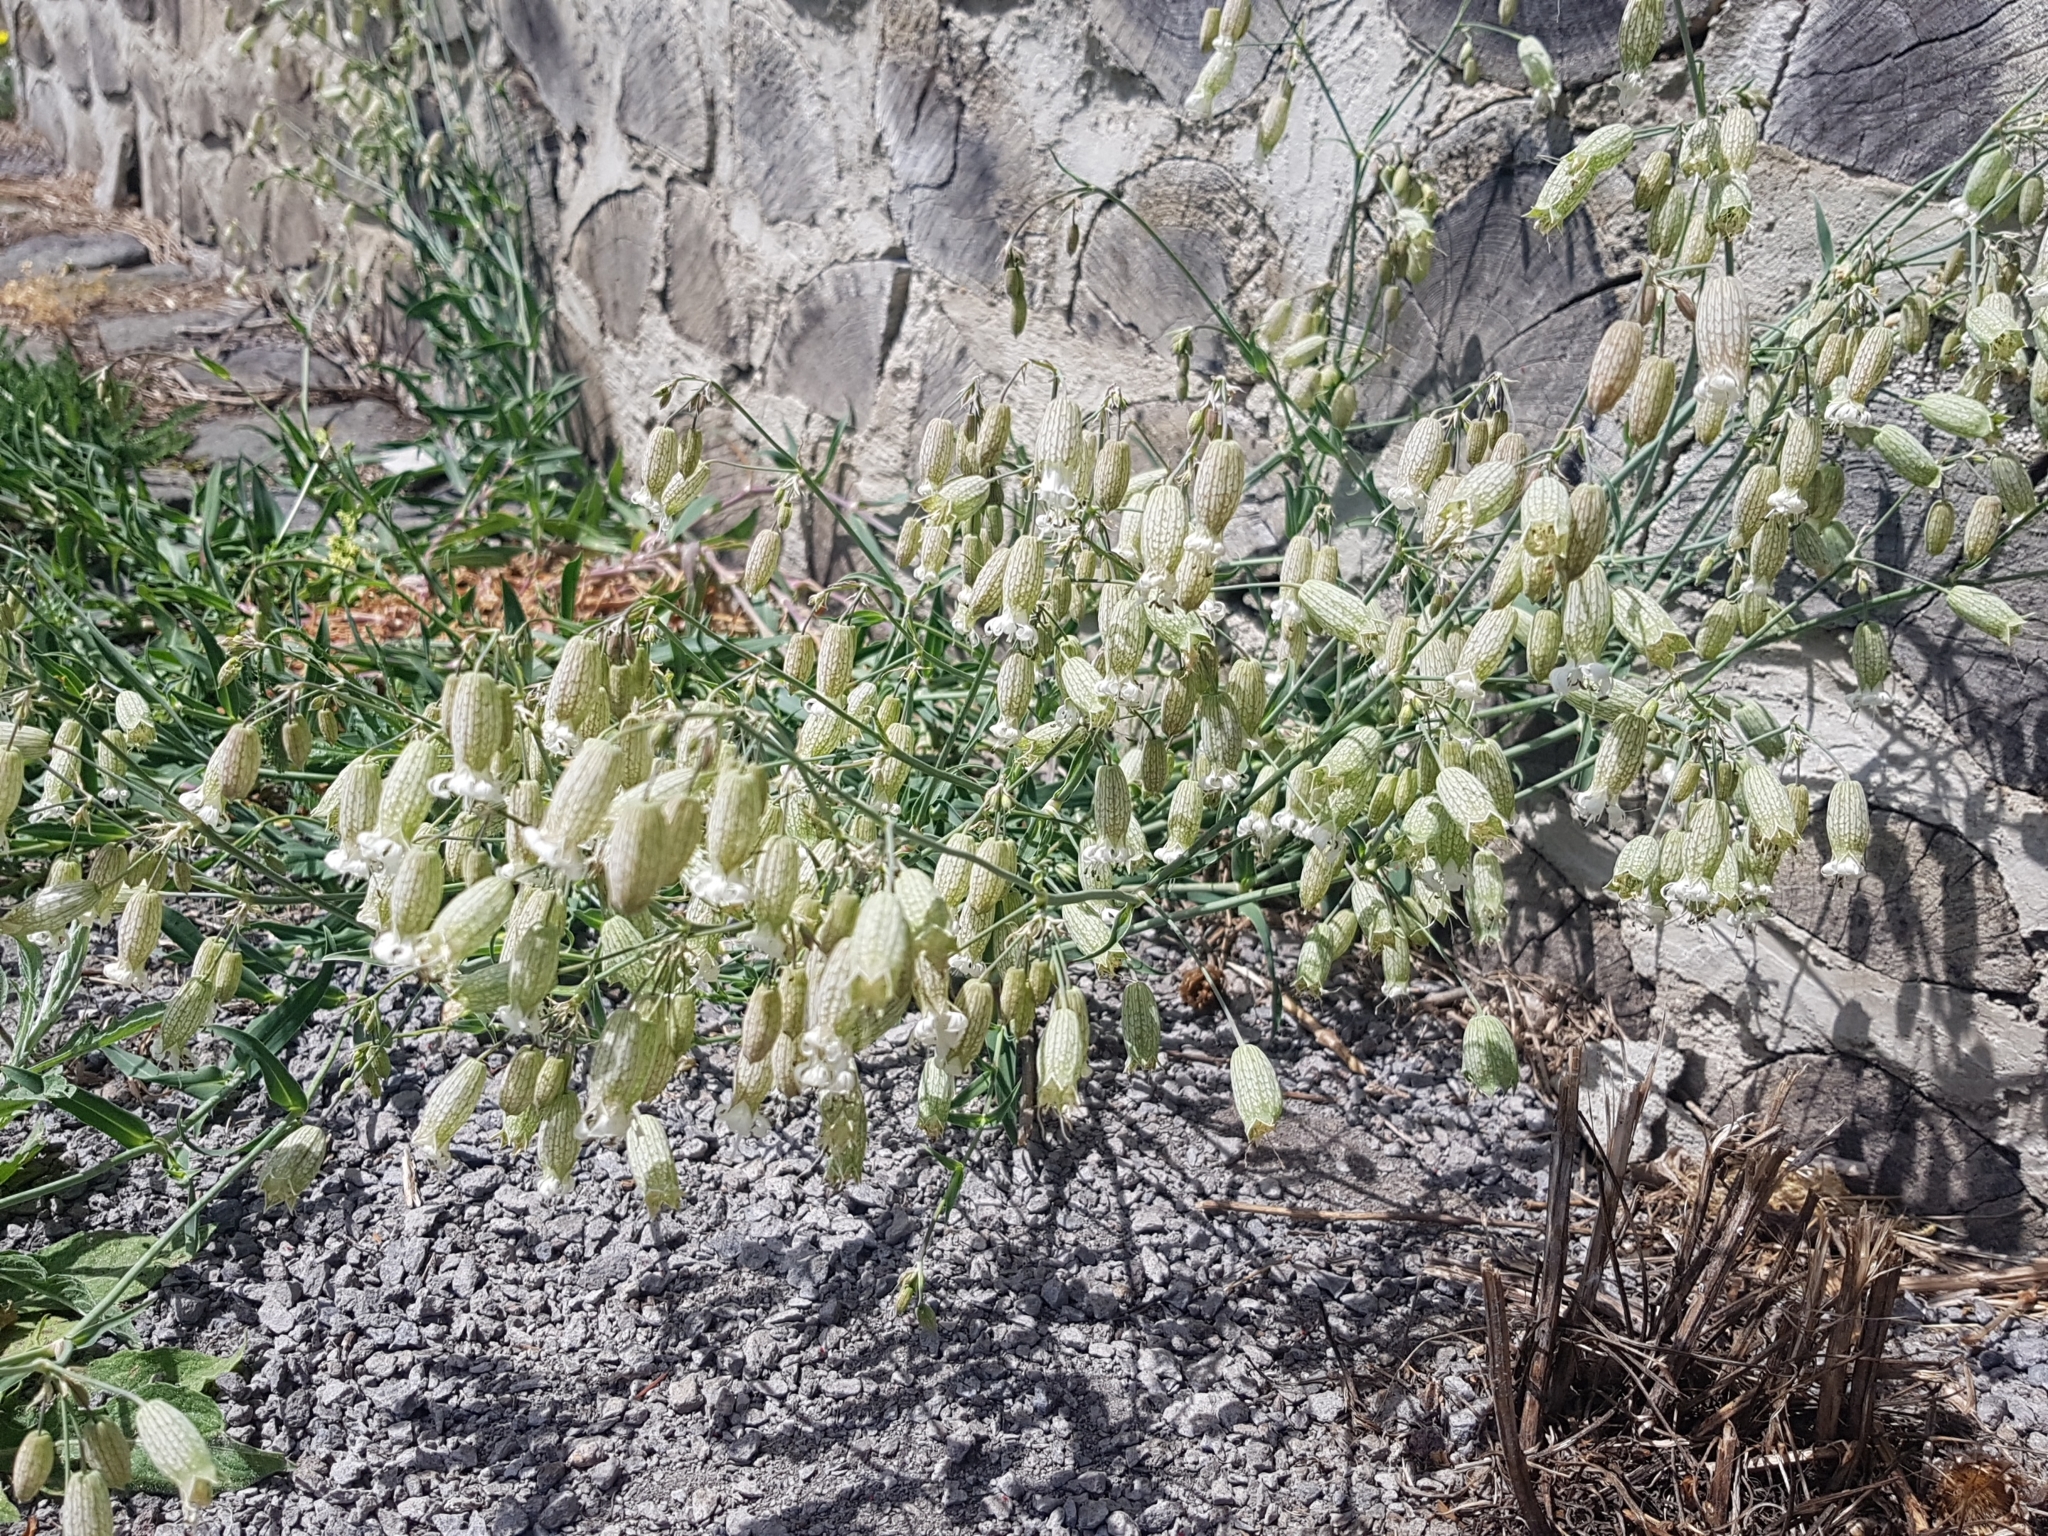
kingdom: Plantae
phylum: Tracheophyta
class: Magnoliopsida
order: Caryophyllales
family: Caryophyllaceae
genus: Silene
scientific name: Silene vulgaris
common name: Bladder campion
